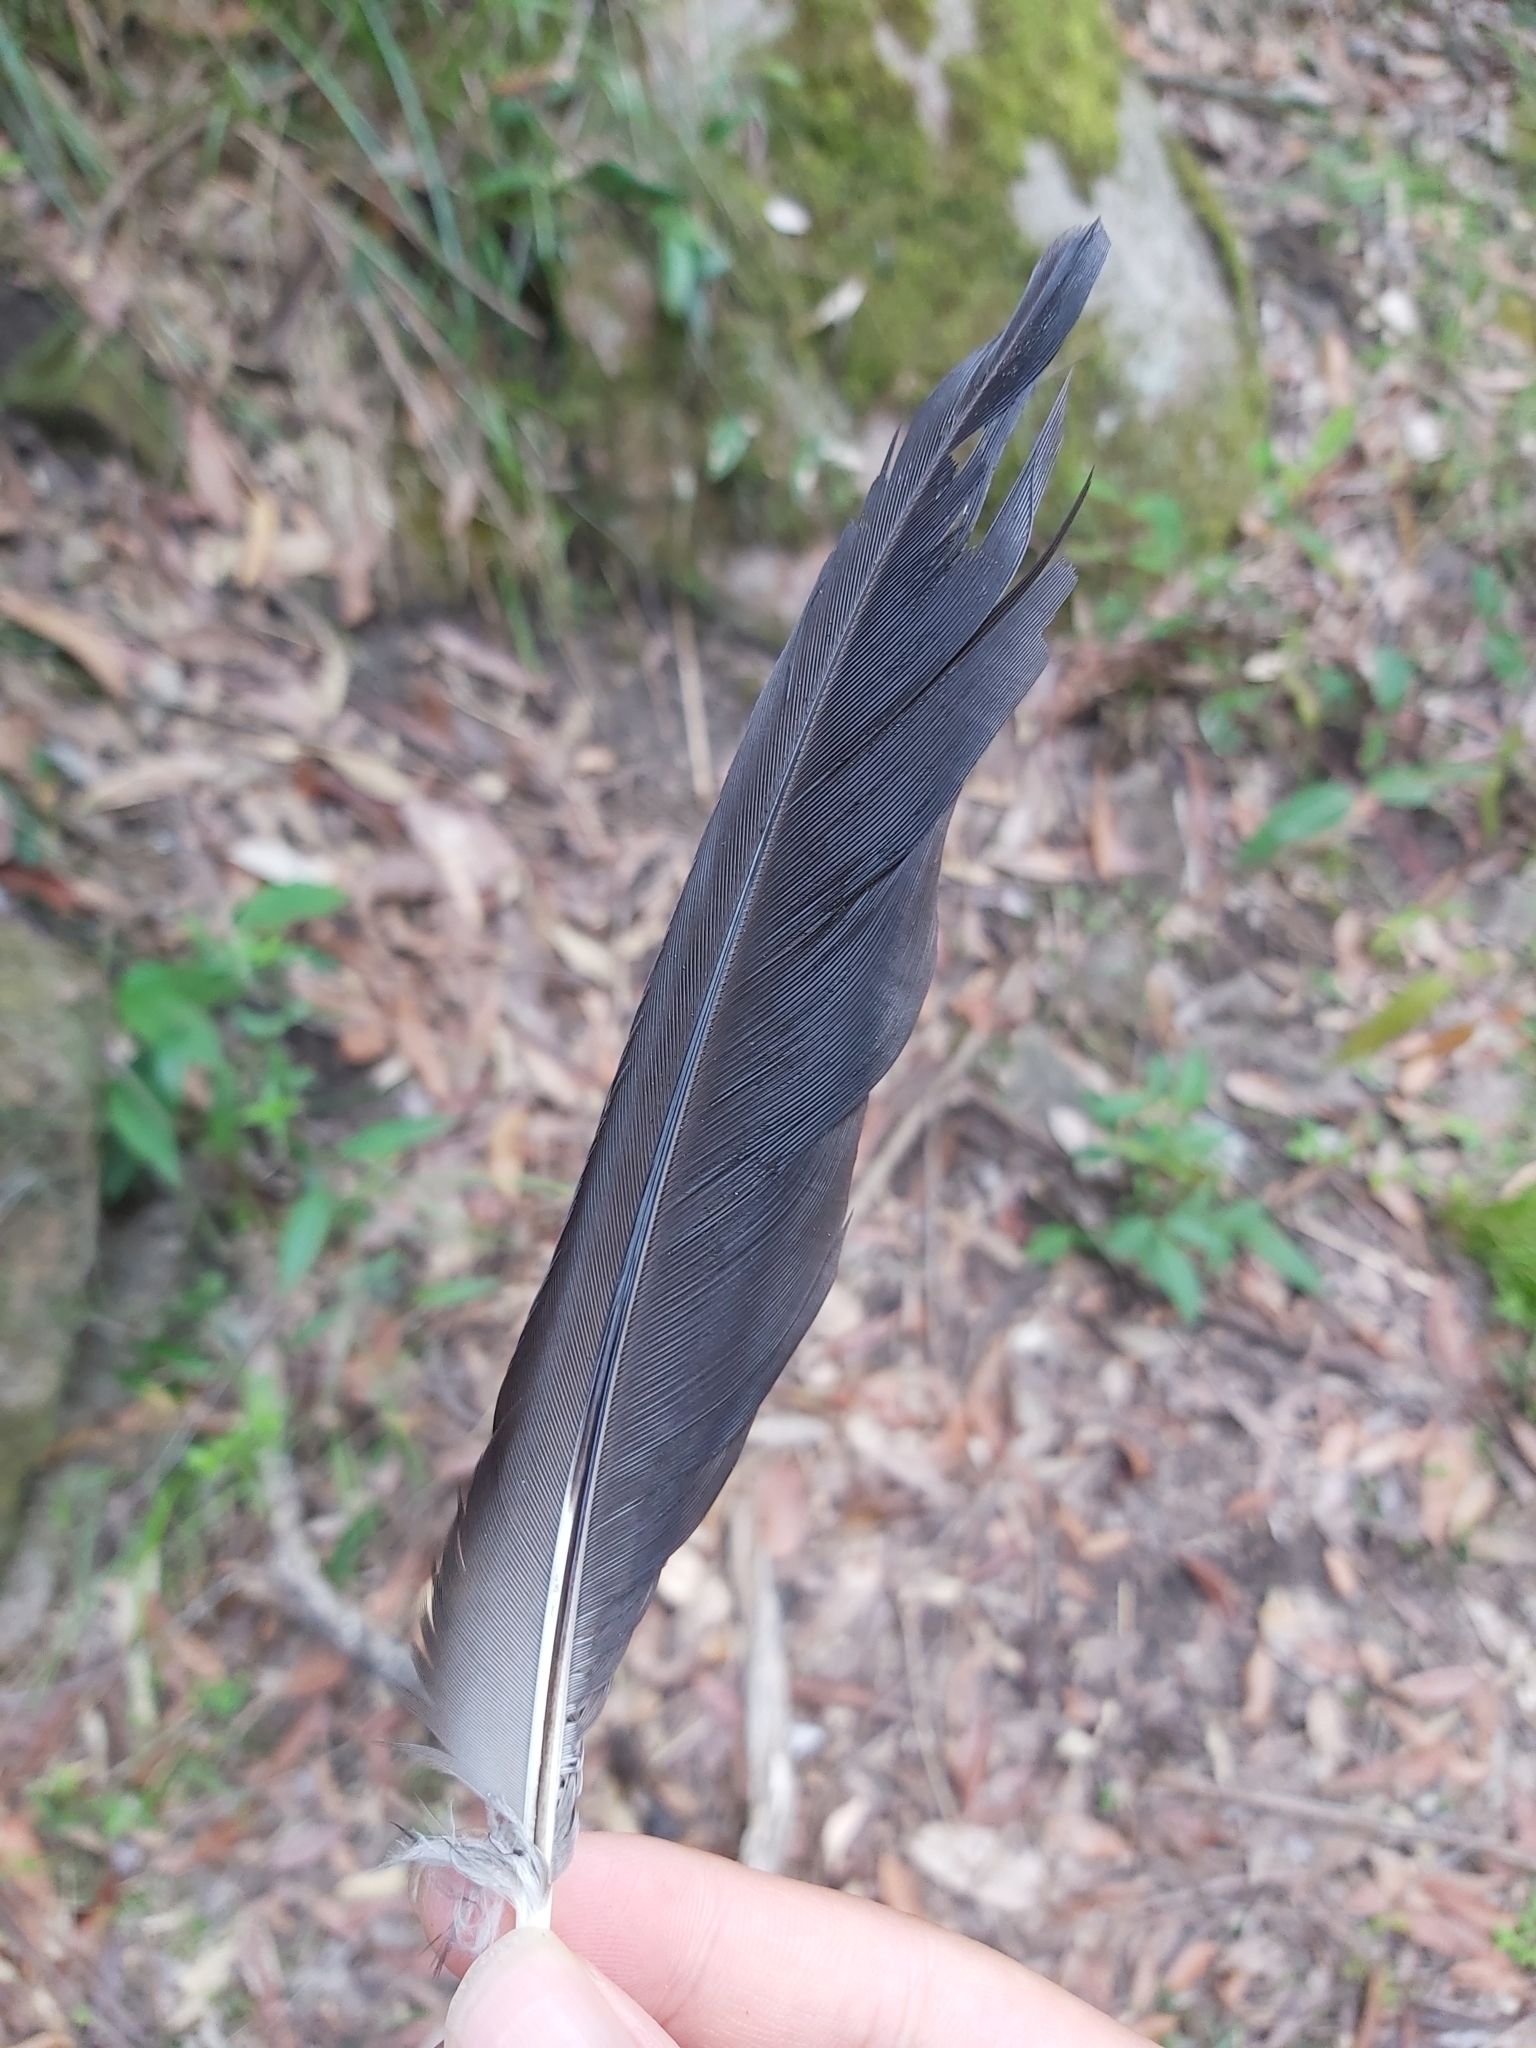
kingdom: Animalia
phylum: Chordata
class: Aves
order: Psittaciformes
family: Psittacidae
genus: Alisterus
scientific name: Alisterus scapularis
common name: Australian king parrot
